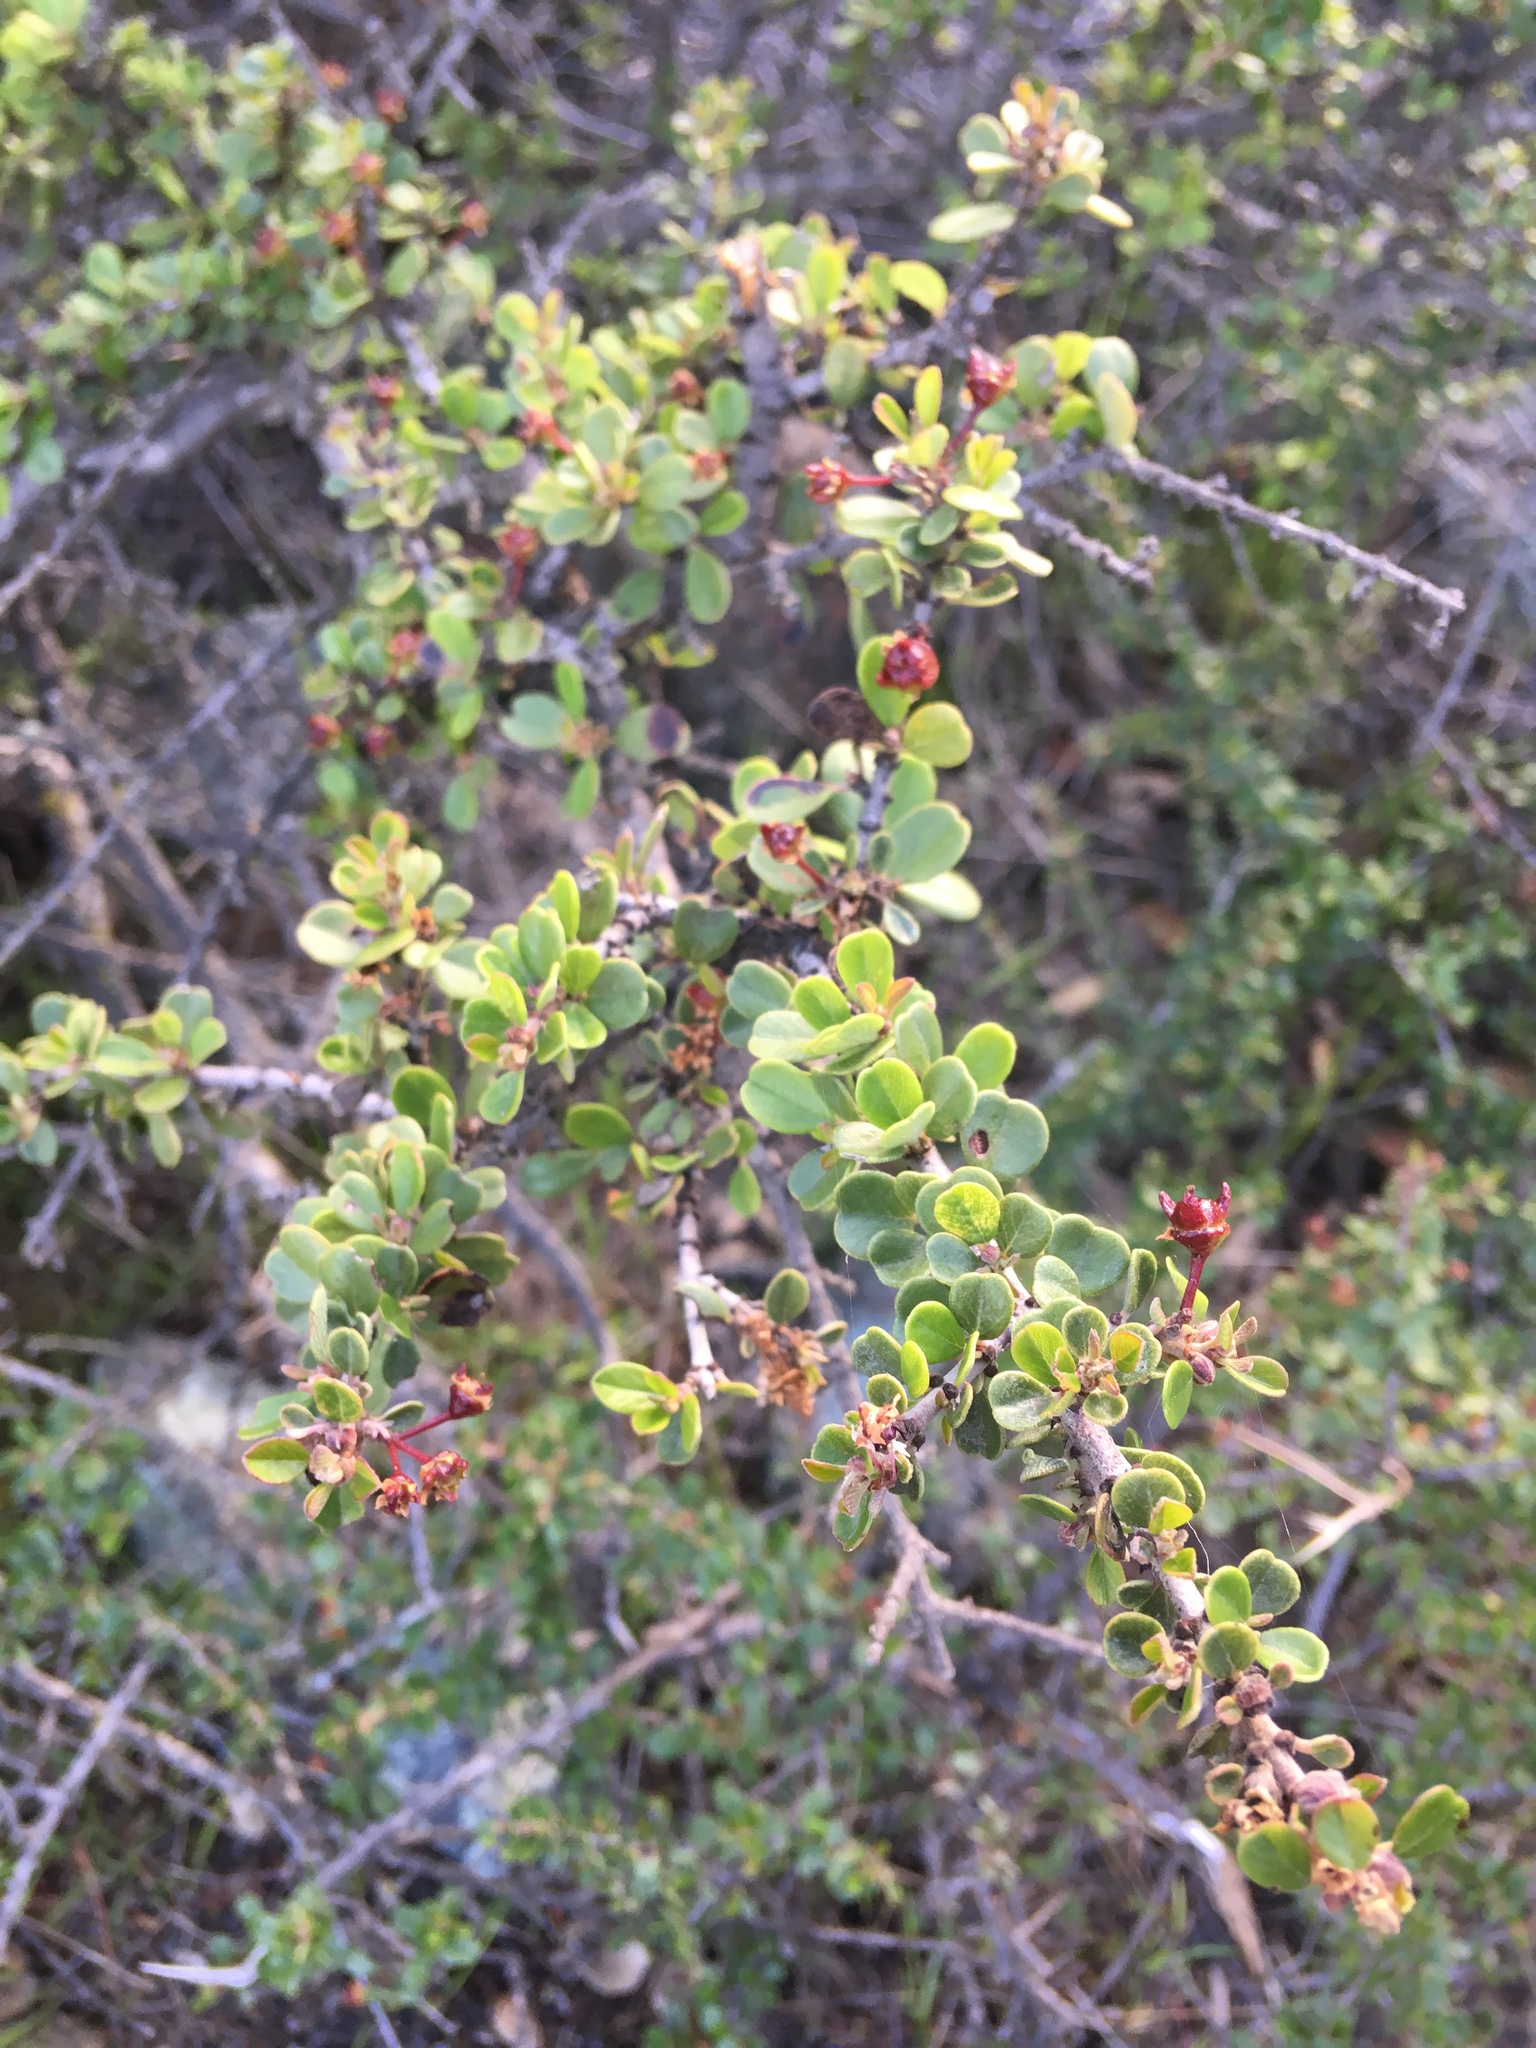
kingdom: Plantae
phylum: Tracheophyta
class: Magnoliopsida
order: Rosales
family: Rhamnaceae
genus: Ceanothus
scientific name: Ceanothus cuneatus
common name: Cuneate ceanothus
